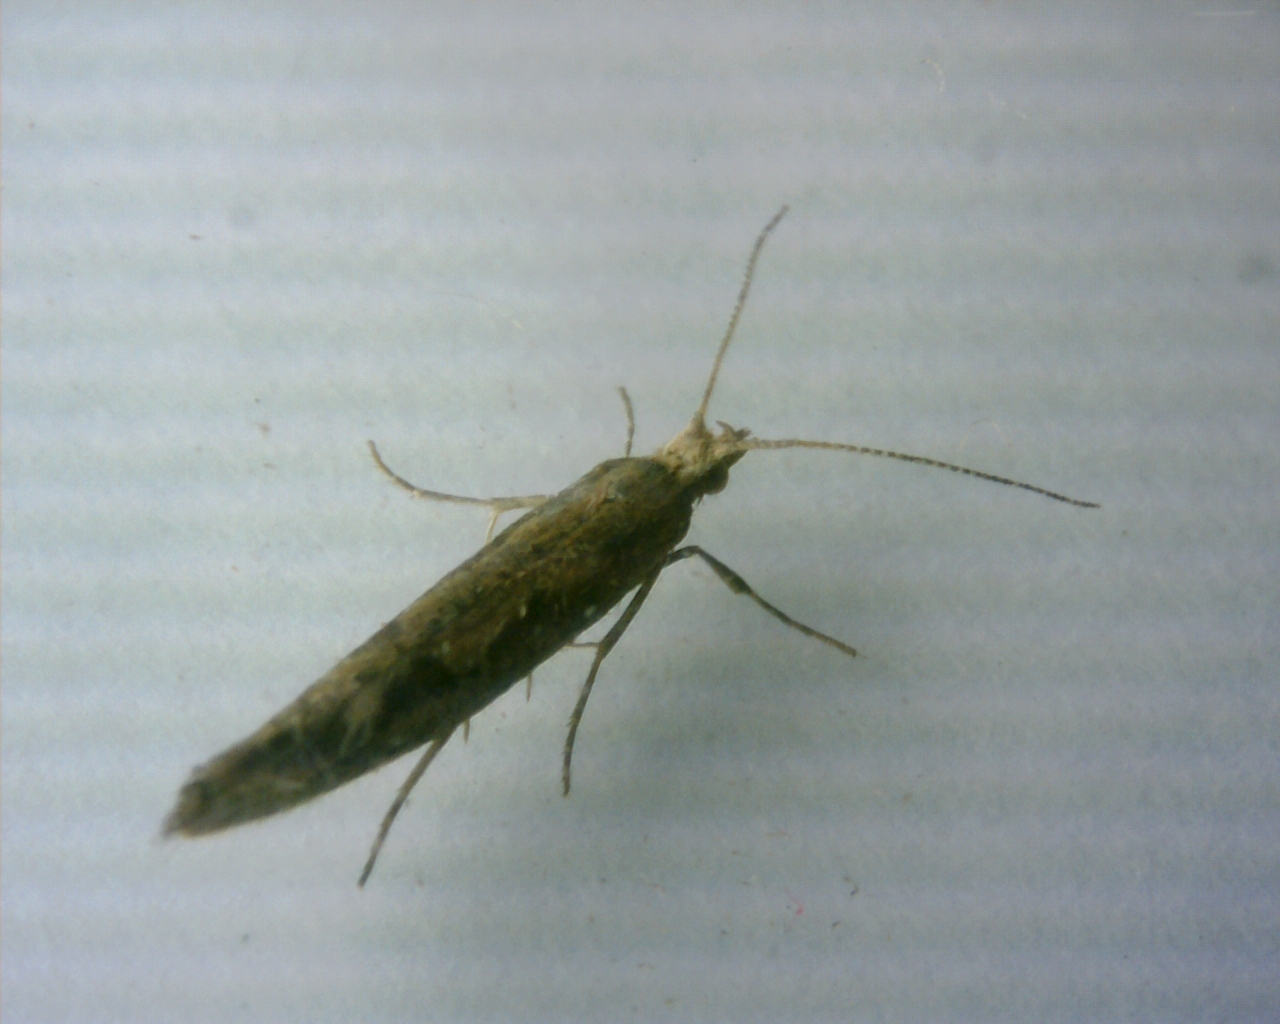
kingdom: Animalia
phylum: Arthropoda
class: Insecta
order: Lepidoptera
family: Plutellidae
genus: Plutella
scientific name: Plutella xylostella
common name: Diamond-back moth
